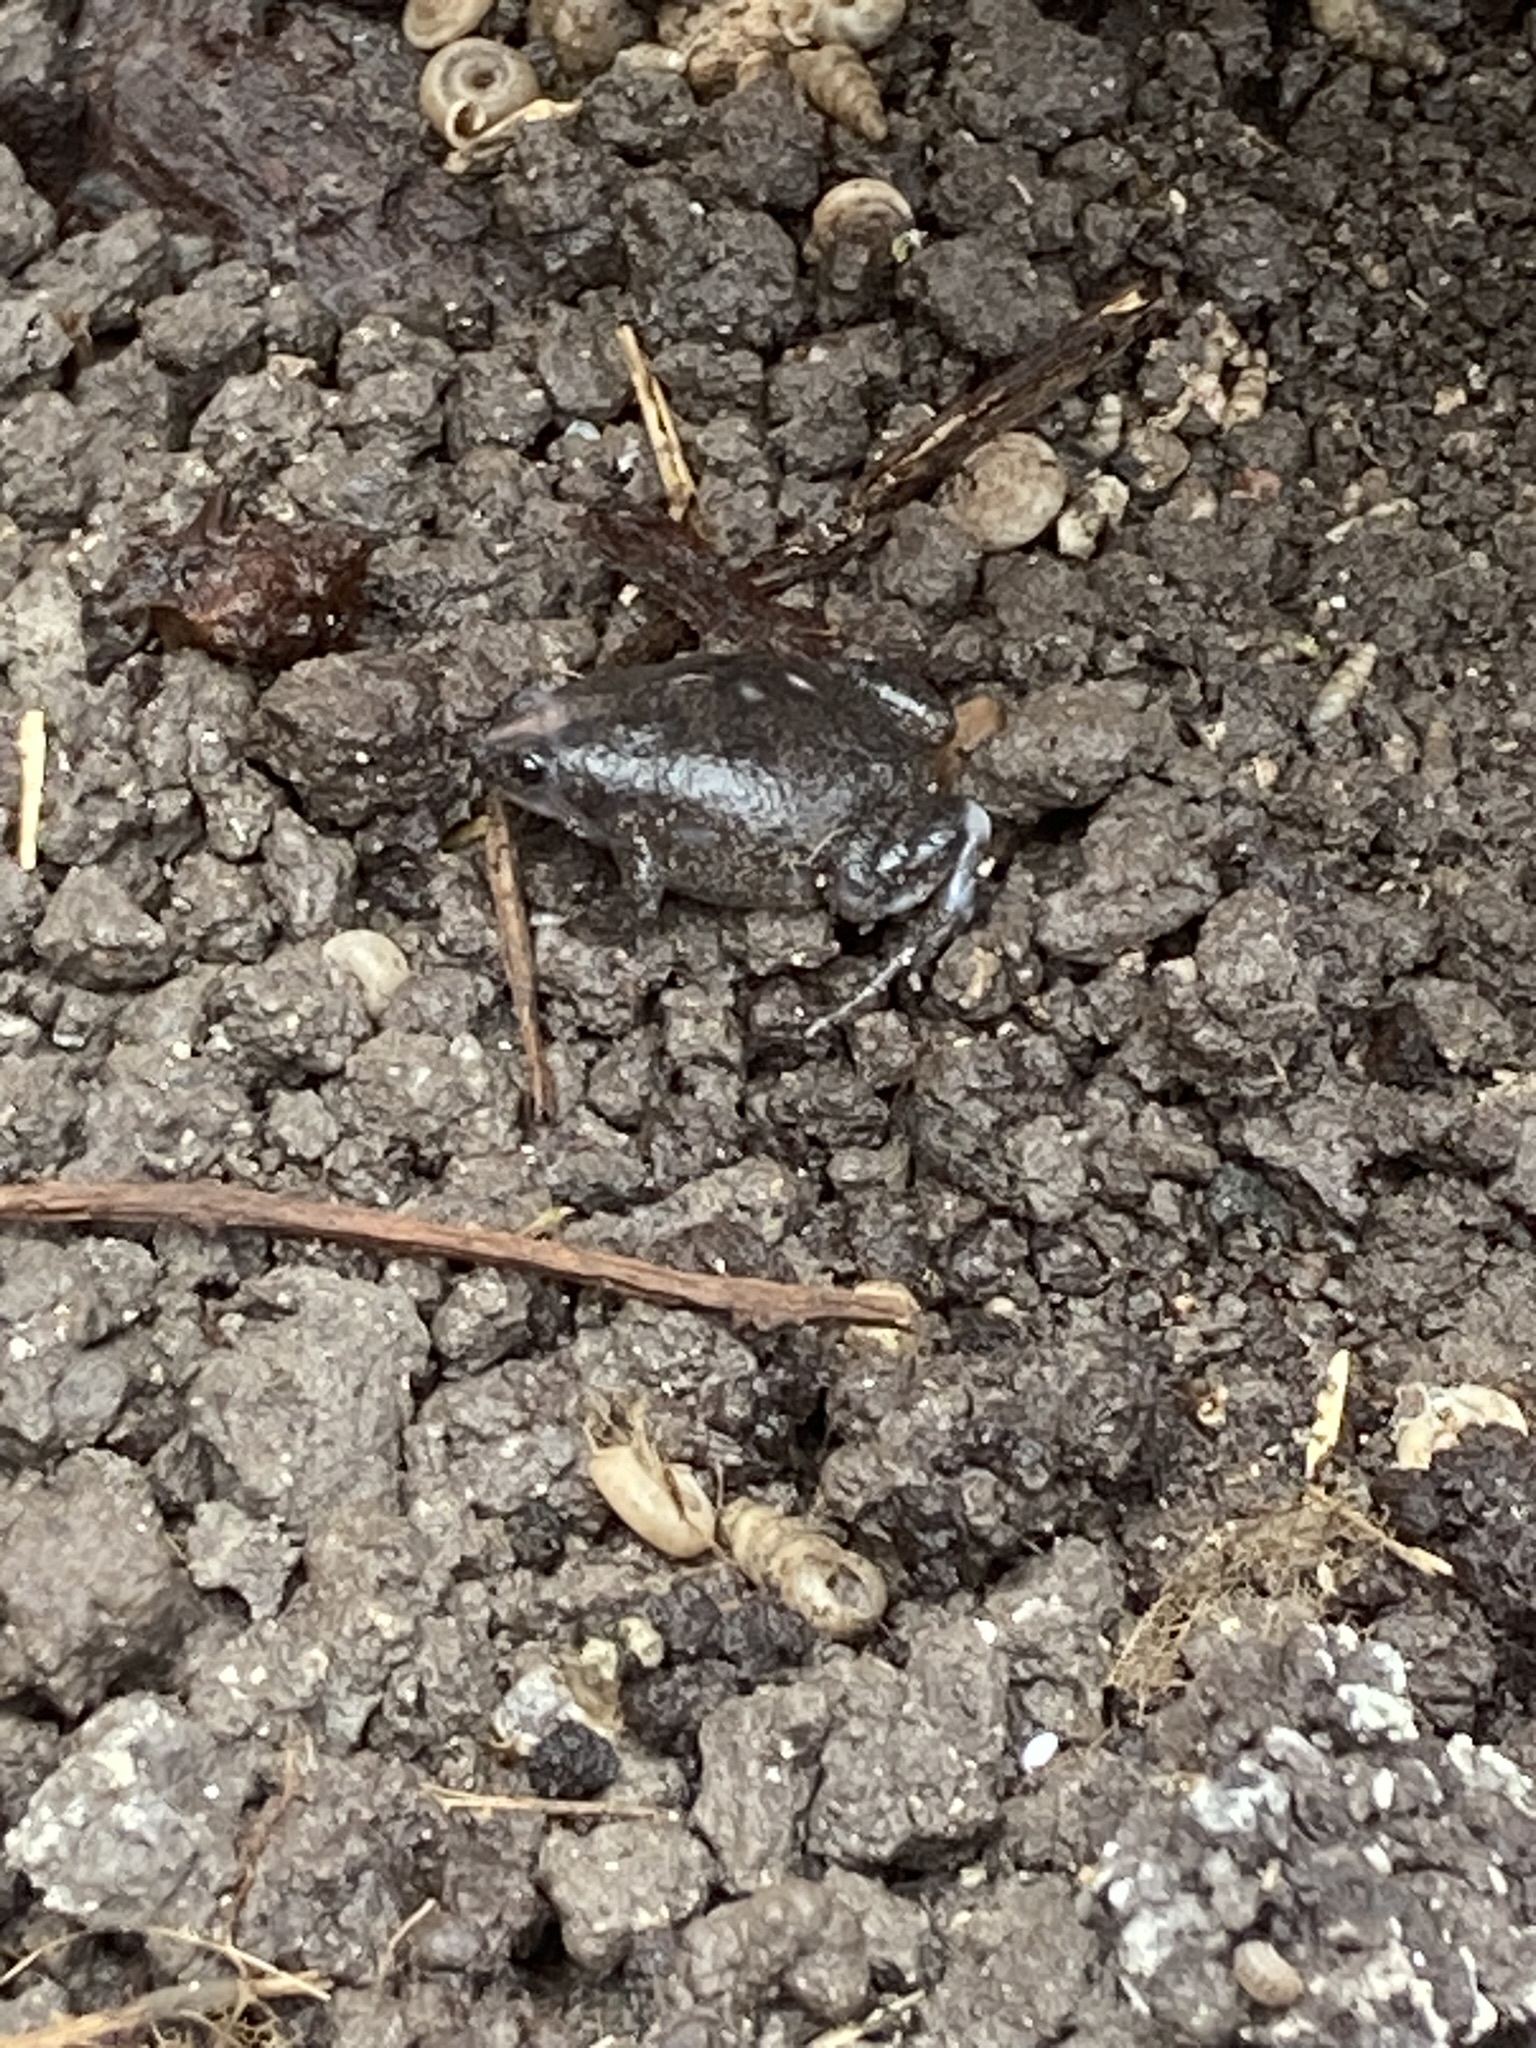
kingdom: Animalia
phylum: Chordata
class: Amphibia
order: Anura
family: Microhylidae
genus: Gastrophryne
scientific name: Gastrophryne carolinensis
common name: Eastern narrowmouth toad
